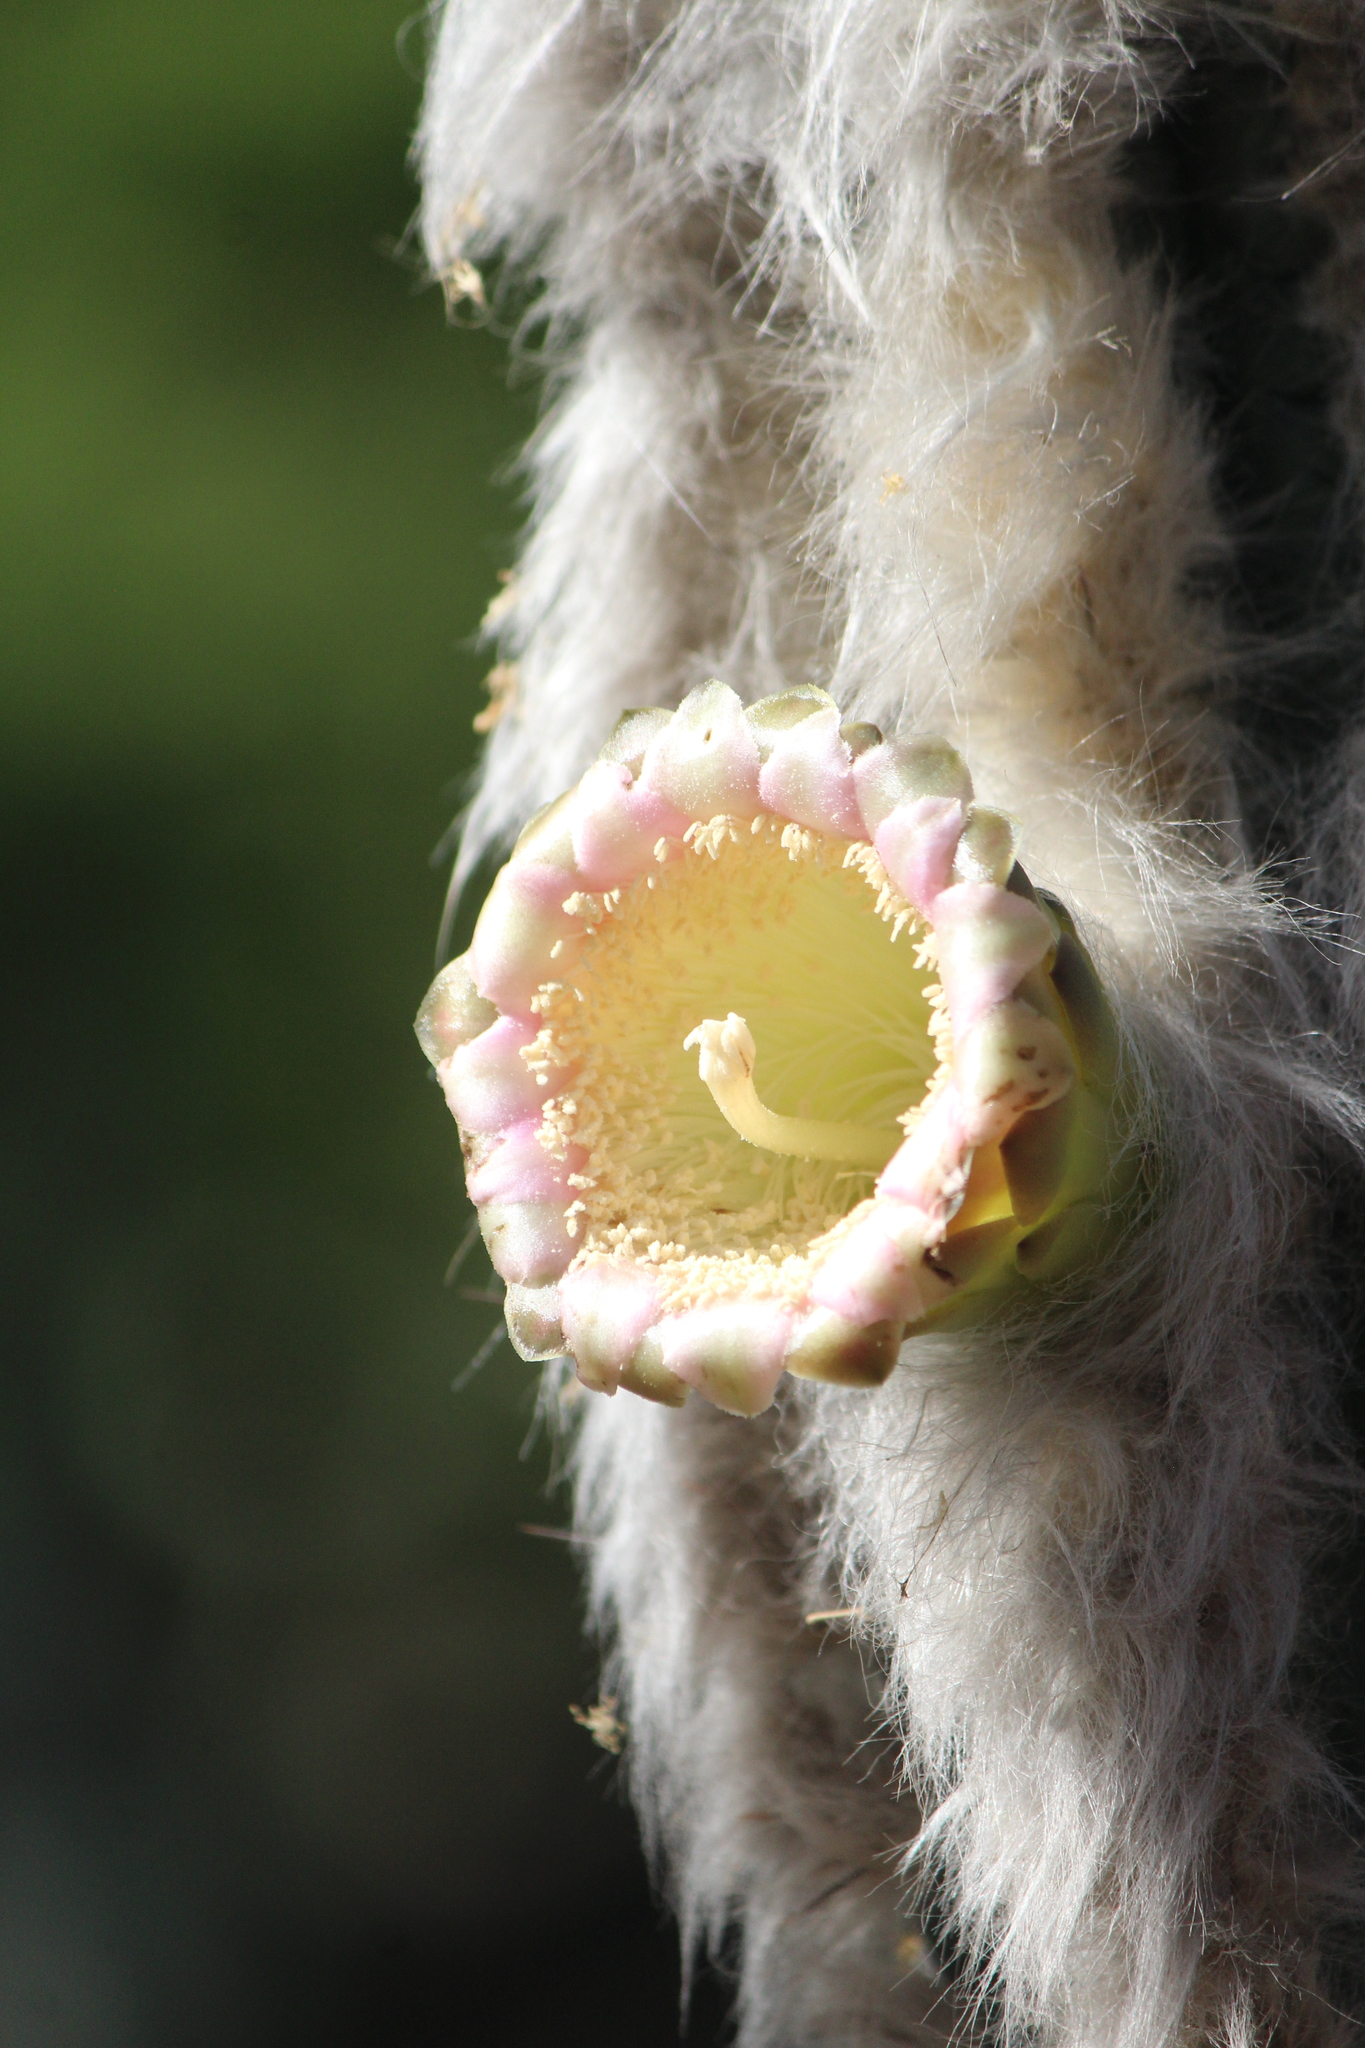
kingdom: Plantae
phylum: Tracheophyta
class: Magnoliopsida
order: Caryophyllales
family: Cactaceae
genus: Pilosocereus
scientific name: Pilosocereus leucocephalus
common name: Old man cactus
